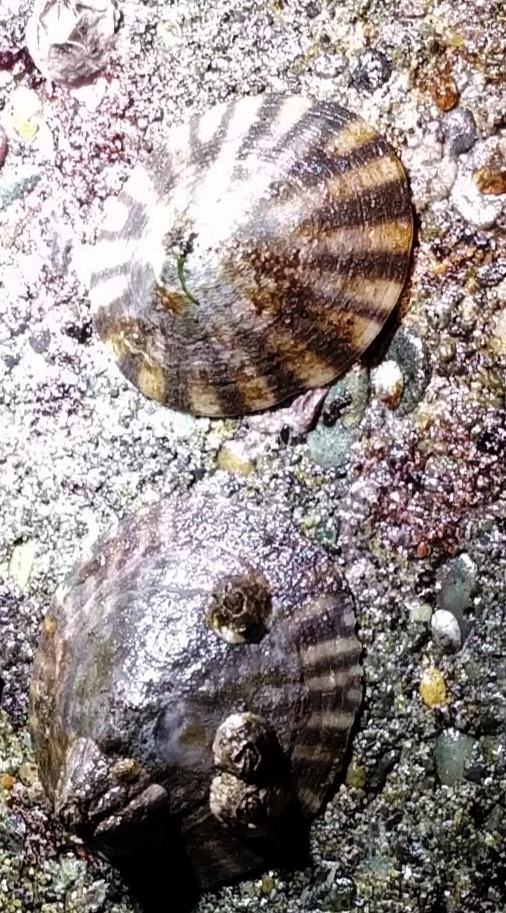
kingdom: Animalia
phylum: Mollusca
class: Gastropoda
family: Lottiidae
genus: Lottia
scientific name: Lottia pelta
